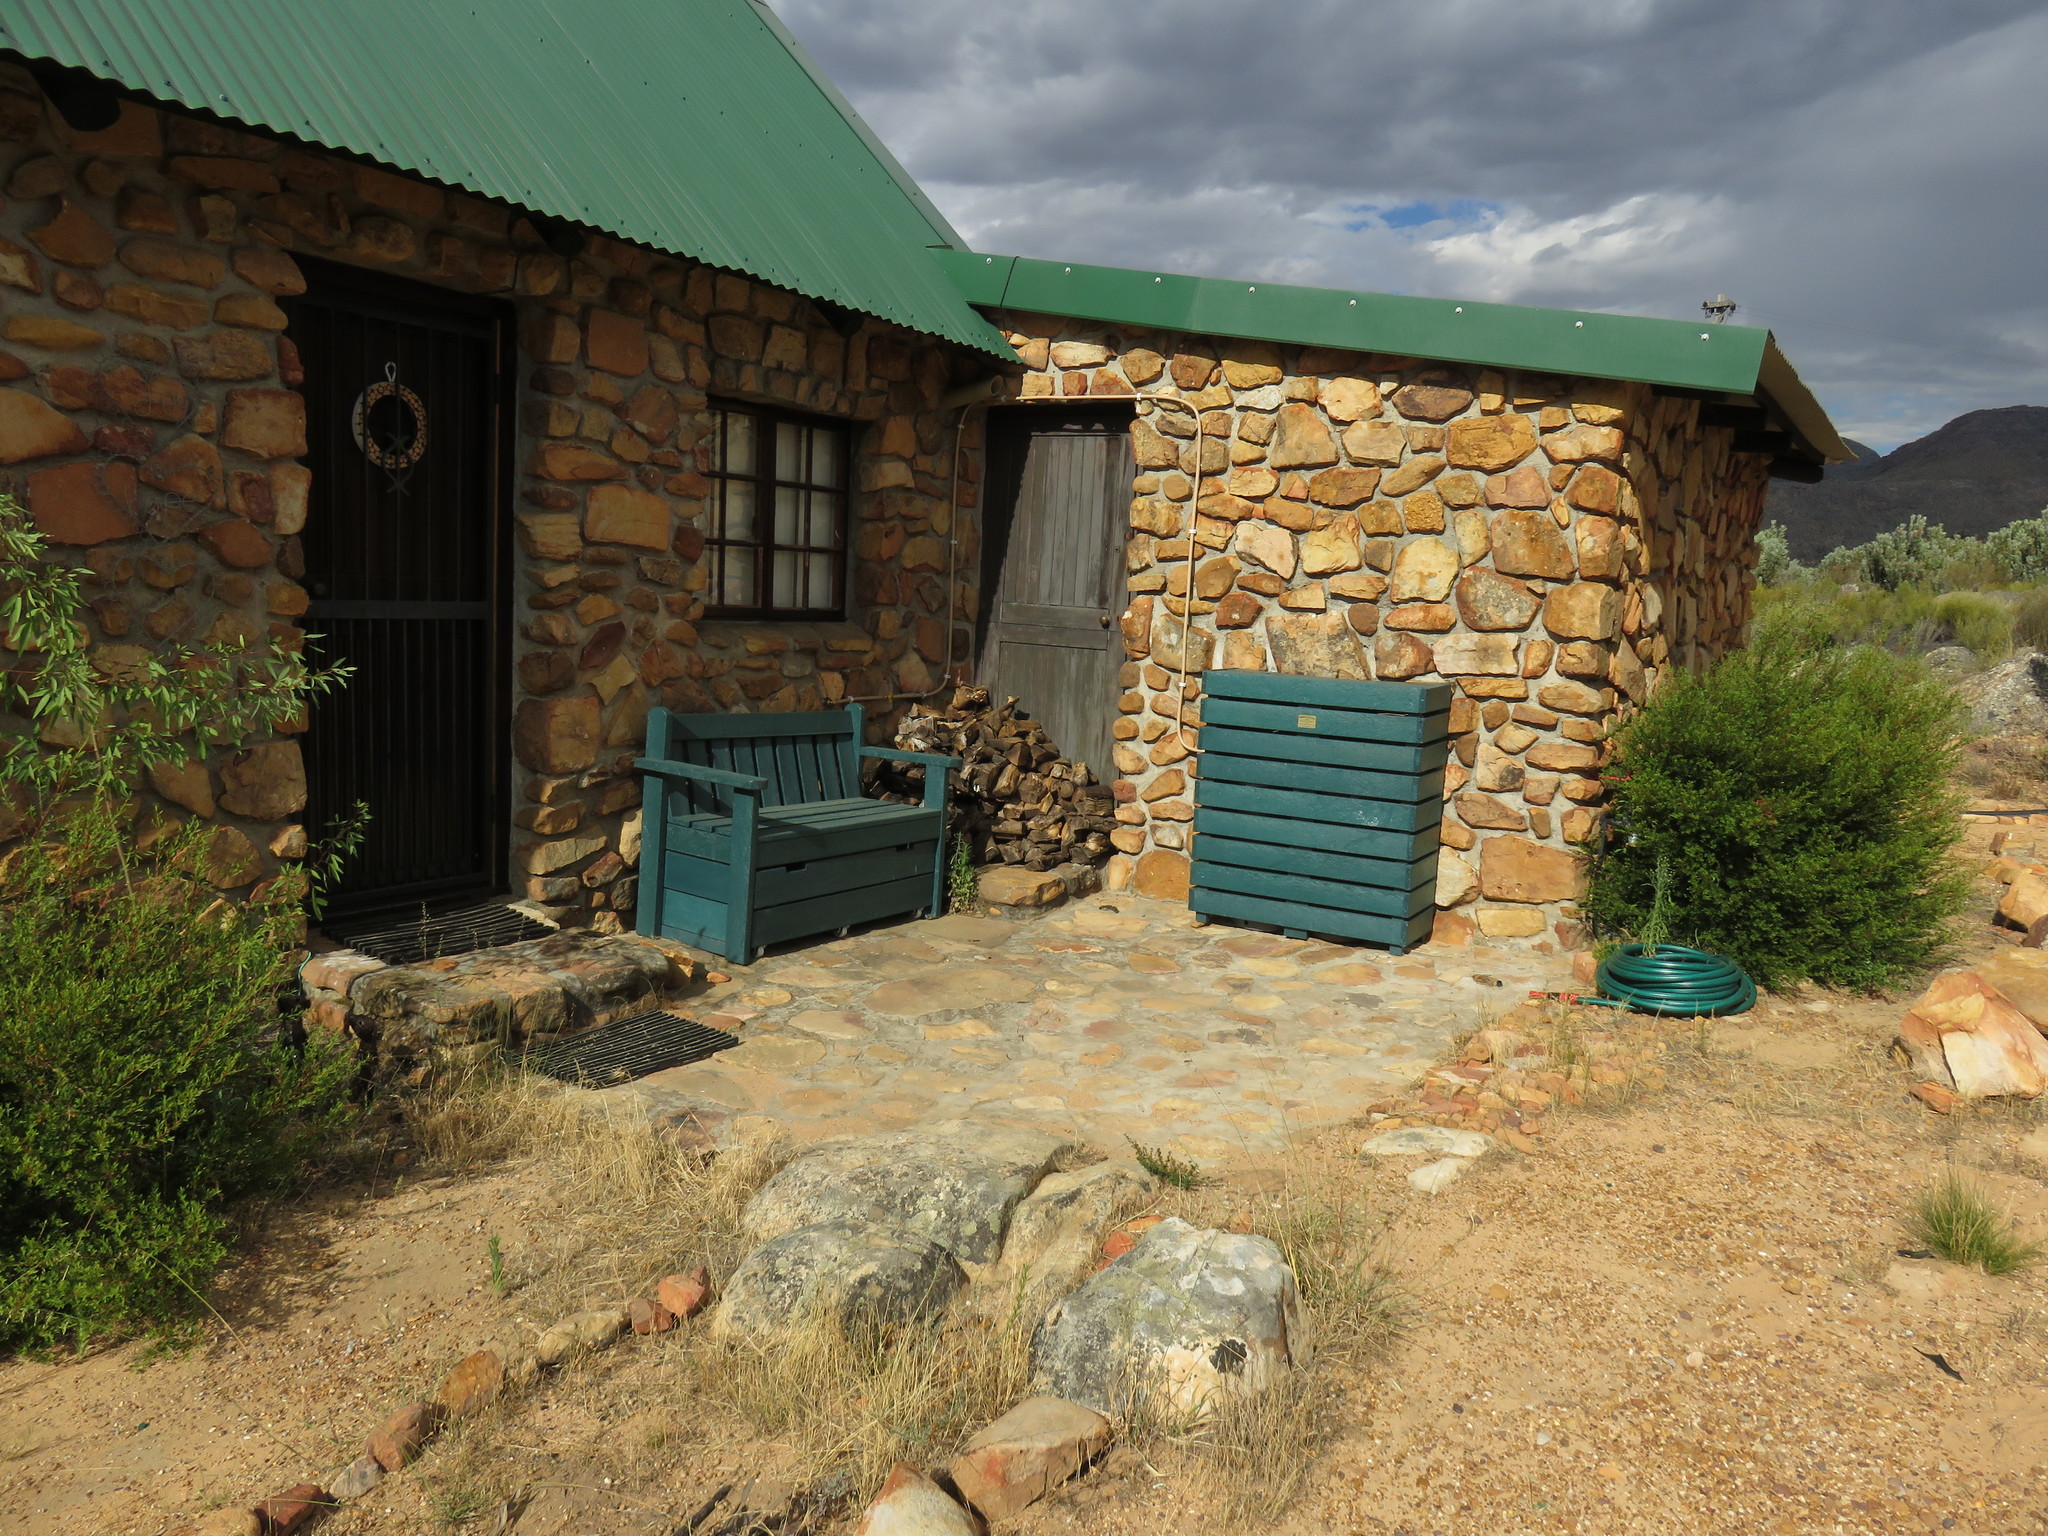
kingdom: Plantae
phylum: Tracheophyta
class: Magnoliopsida
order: Ericales
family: Ebenaceae
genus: Diospyros
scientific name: Diospyros glabra
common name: Fynbos star apple
